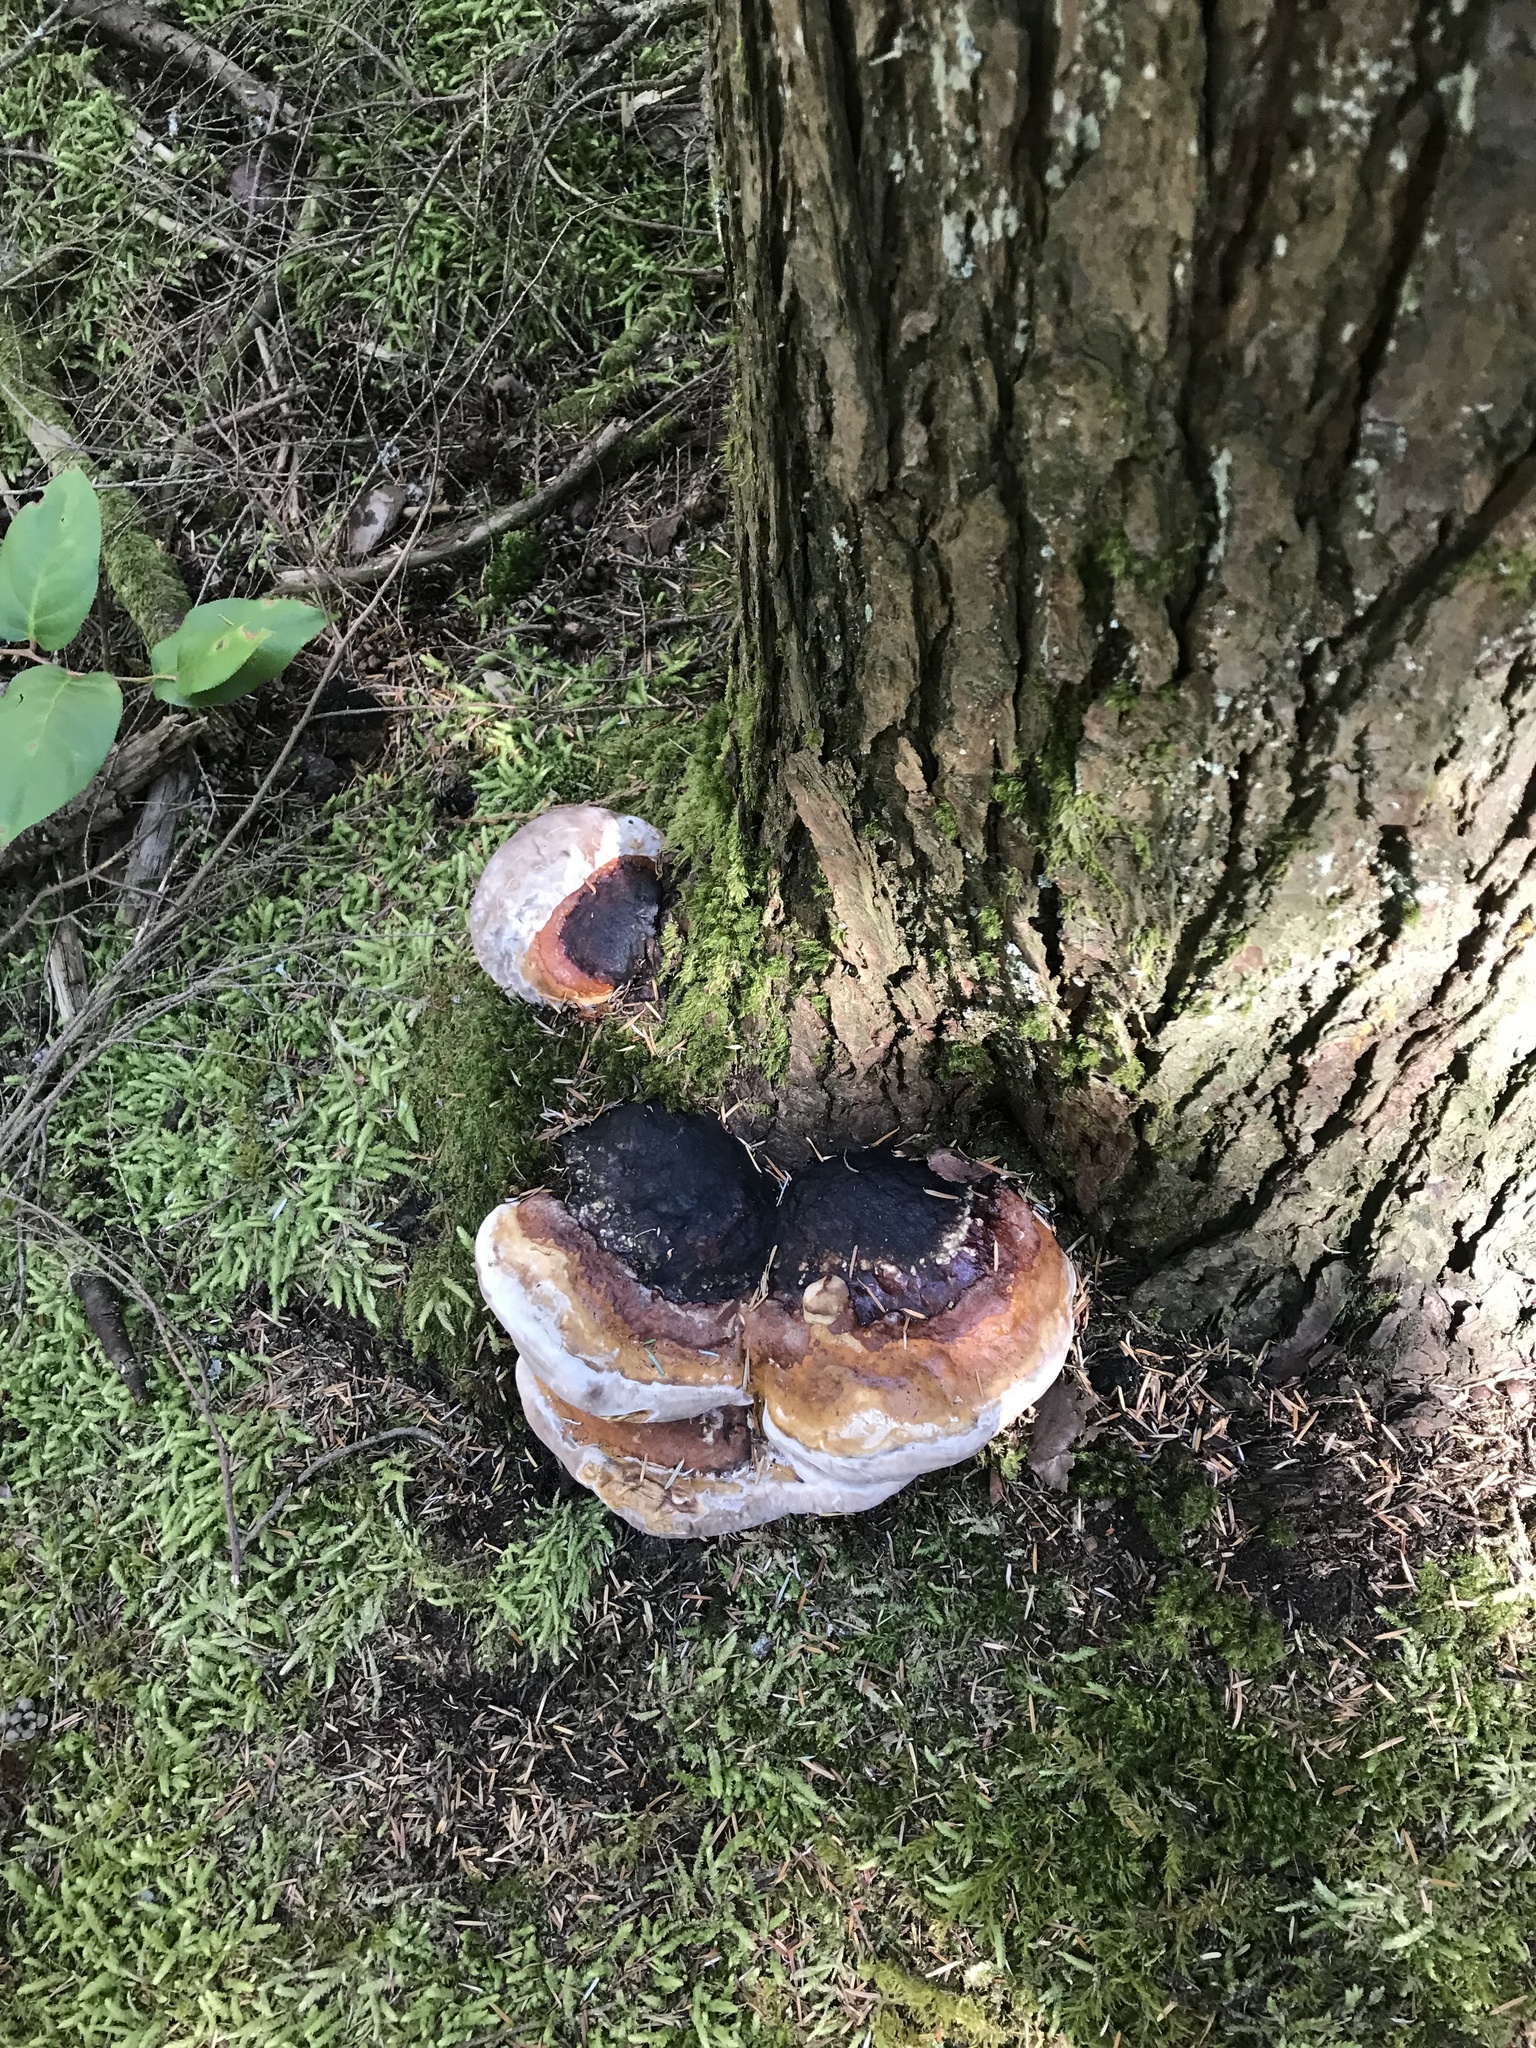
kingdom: Fungi
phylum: Basidiomycota
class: Agaricomycetes
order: Polyporales
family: Fomitopsidaceae
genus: Fomitopsis
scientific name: Fomitopsis mounceae
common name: Northern red belt
